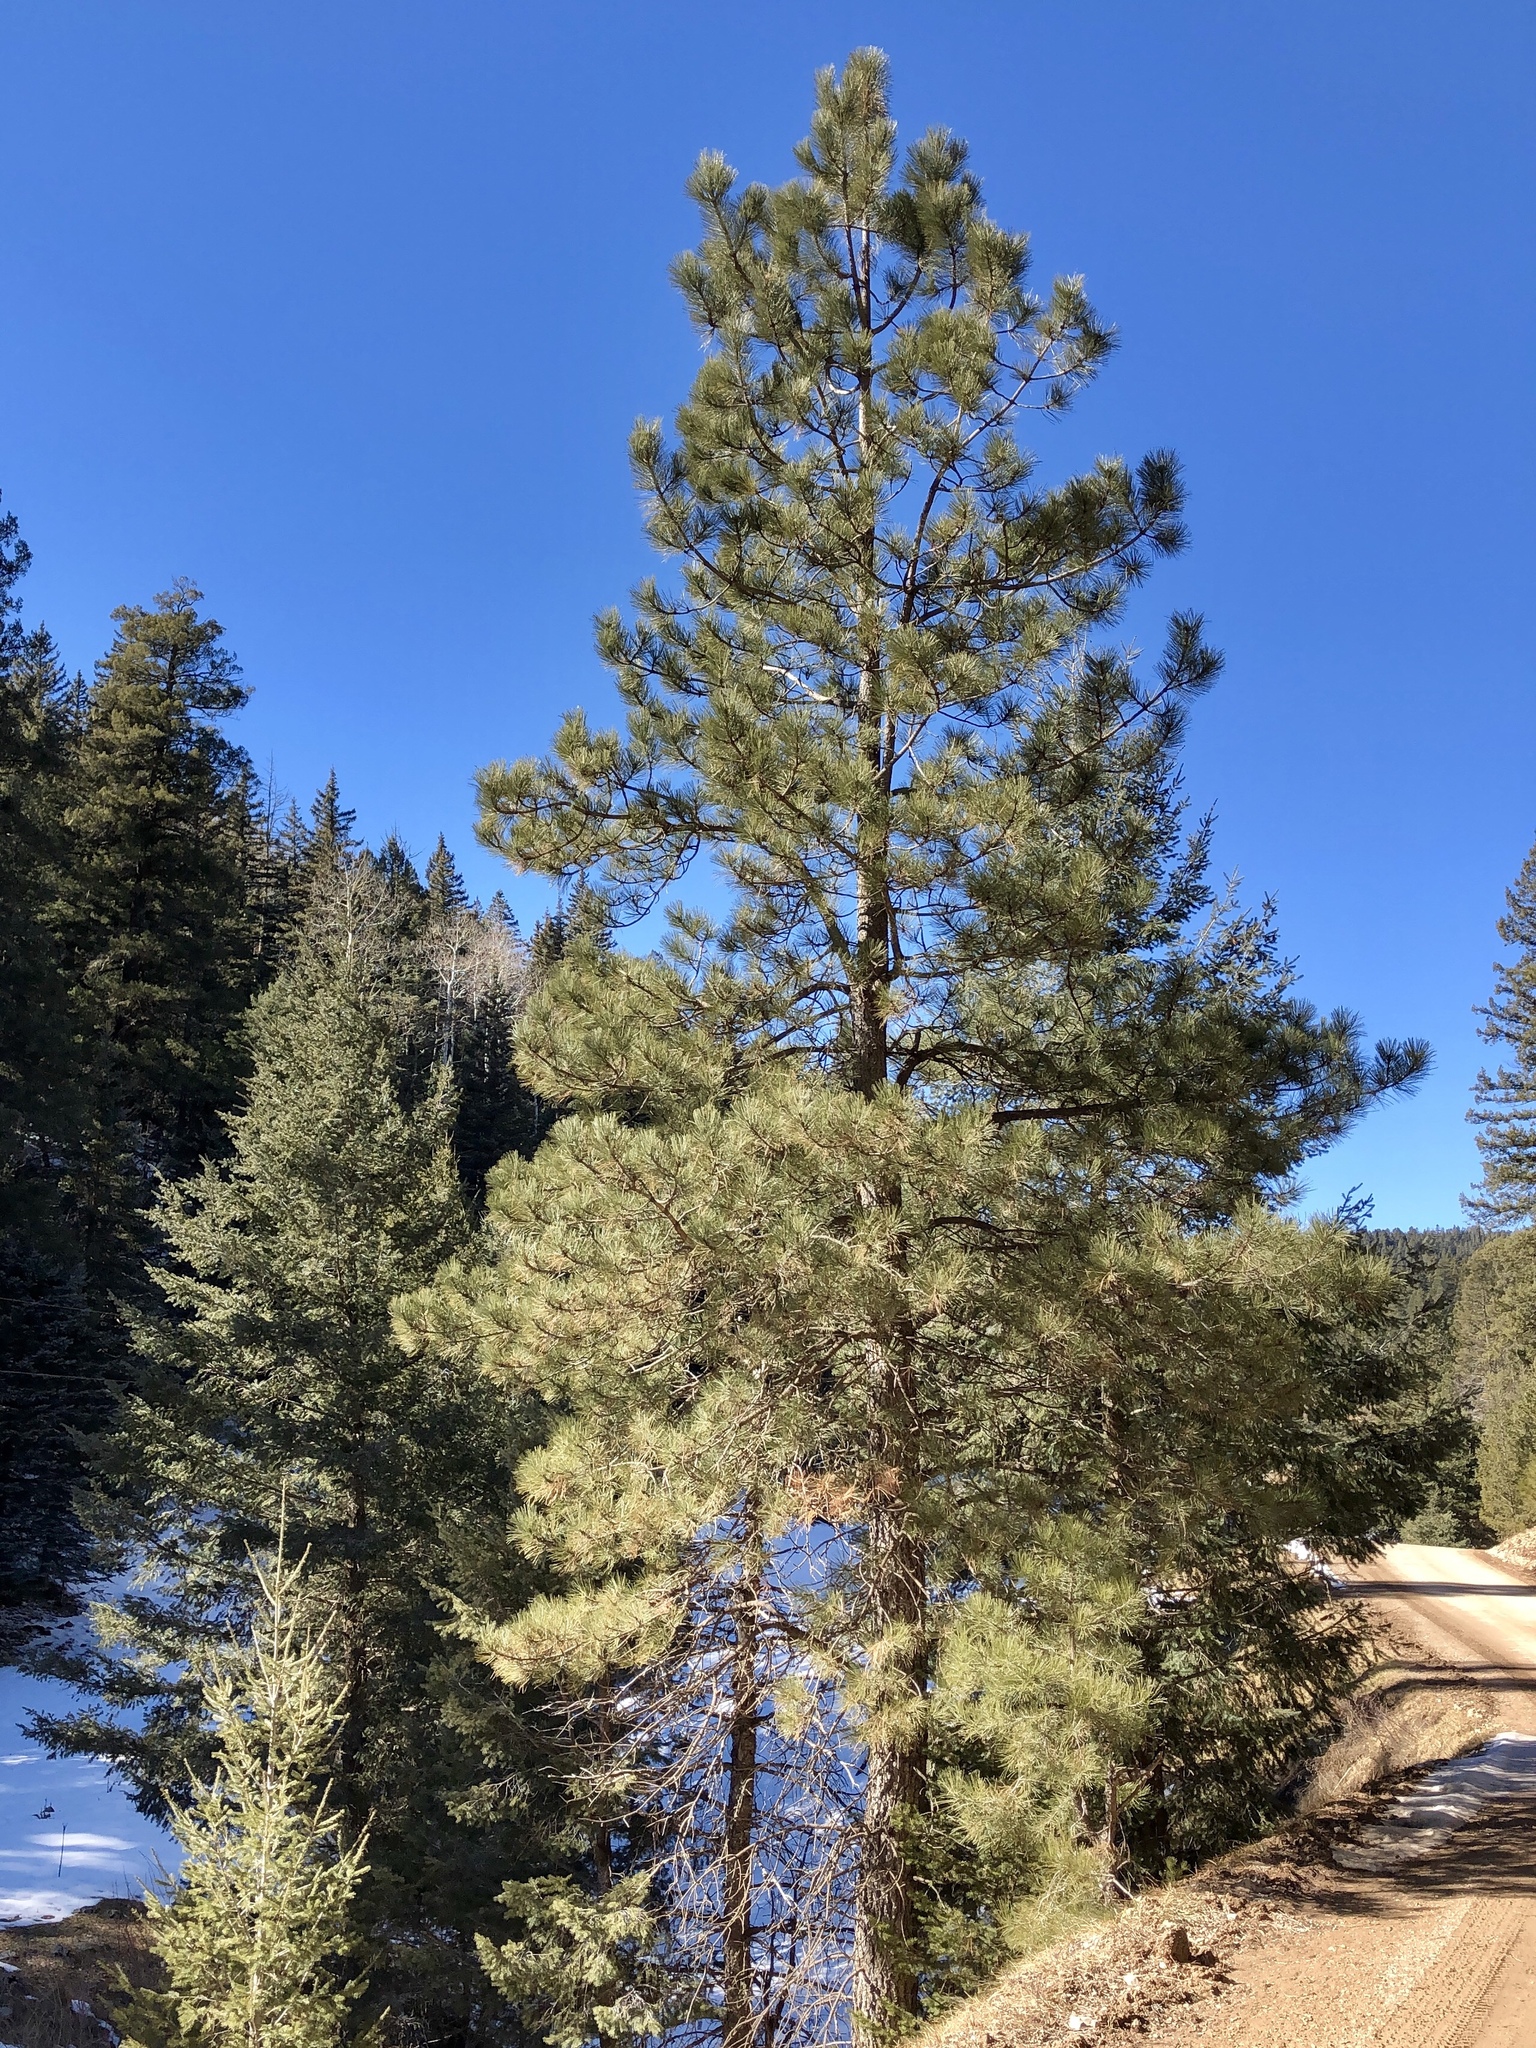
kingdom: Plantae
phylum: Tracheophyta
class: Pinopsida
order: Pinales
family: Pinaceae
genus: Pinus
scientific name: Pinus ponderosa
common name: Western yellow-pine
